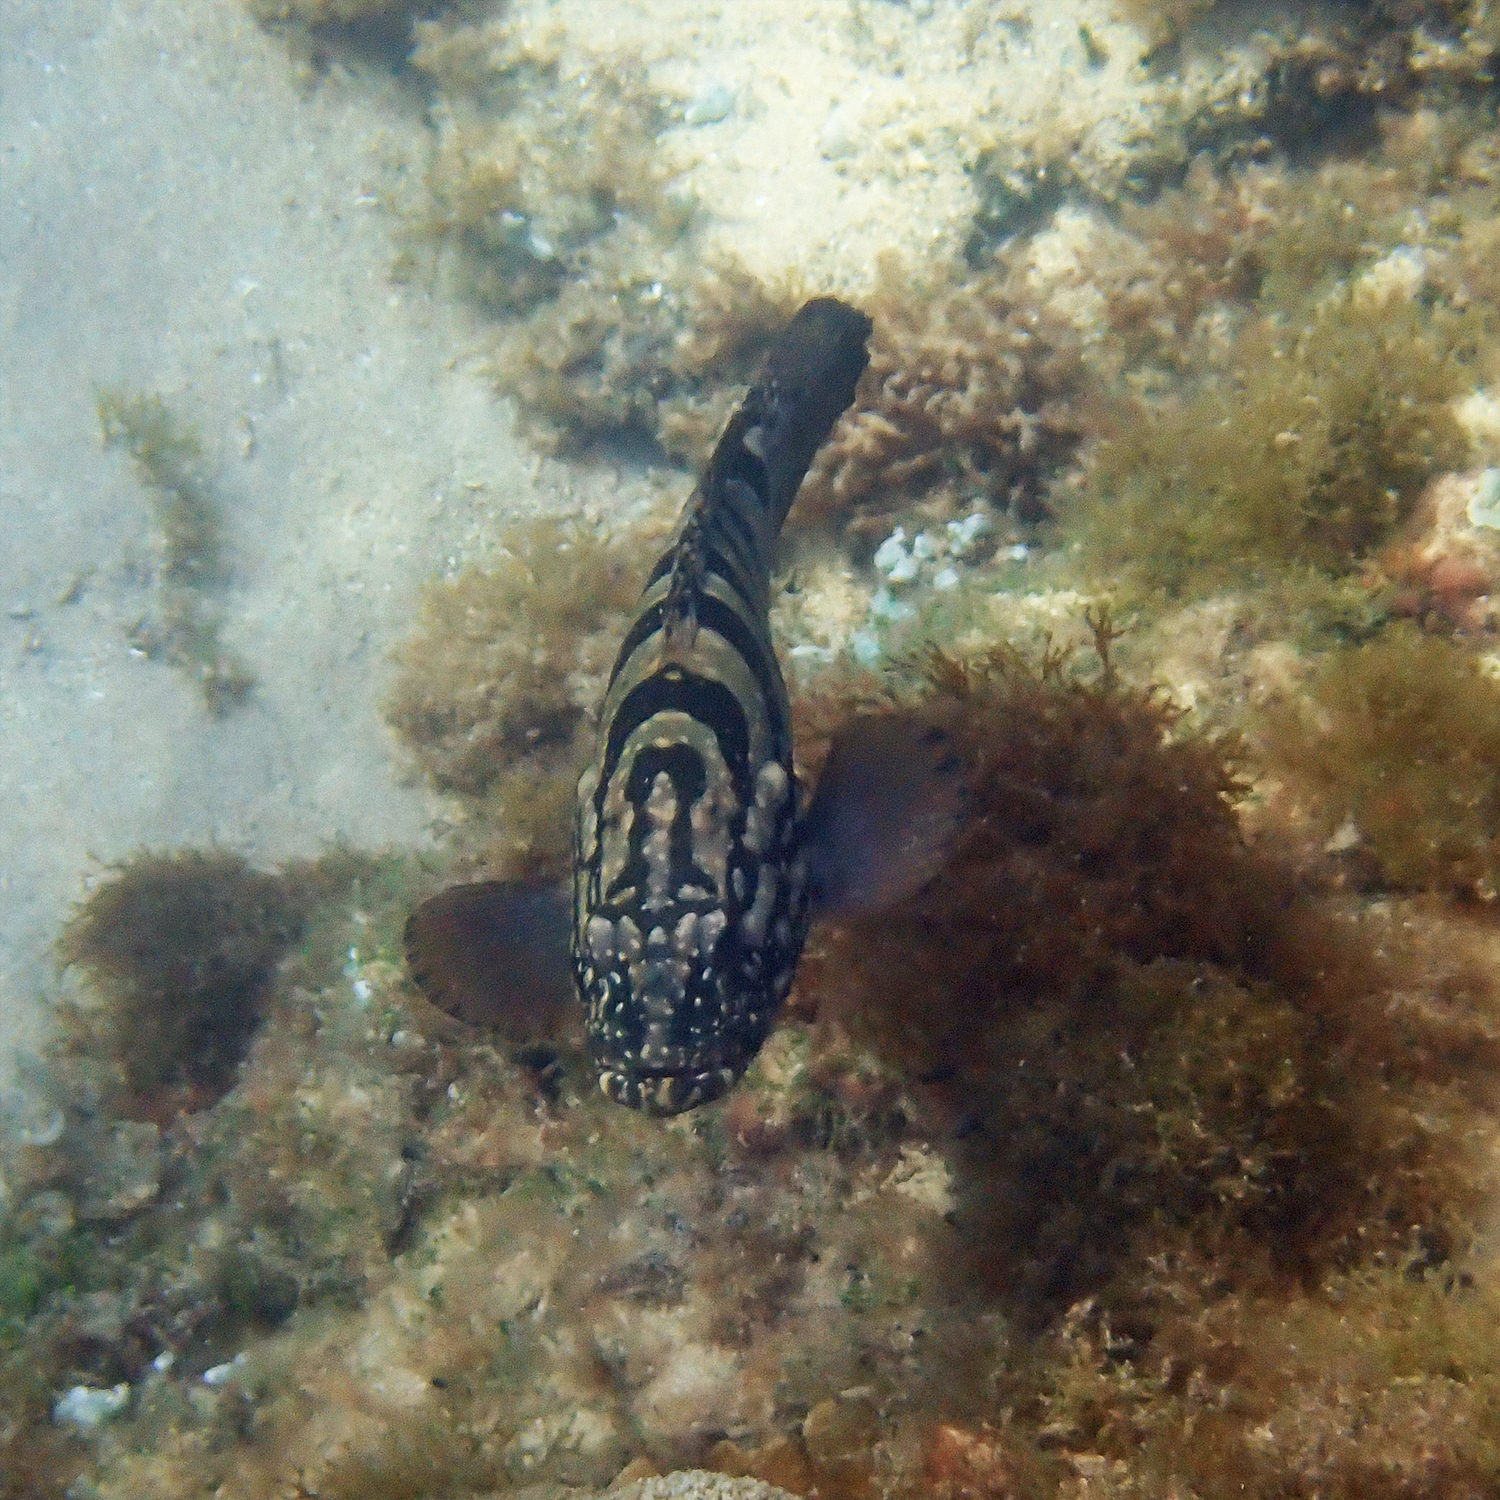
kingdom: Animalia
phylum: Chordata
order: Perciformes
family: Serranidae
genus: Epinephelus
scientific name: Epinephelus daemelii
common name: Saddletail grouper
